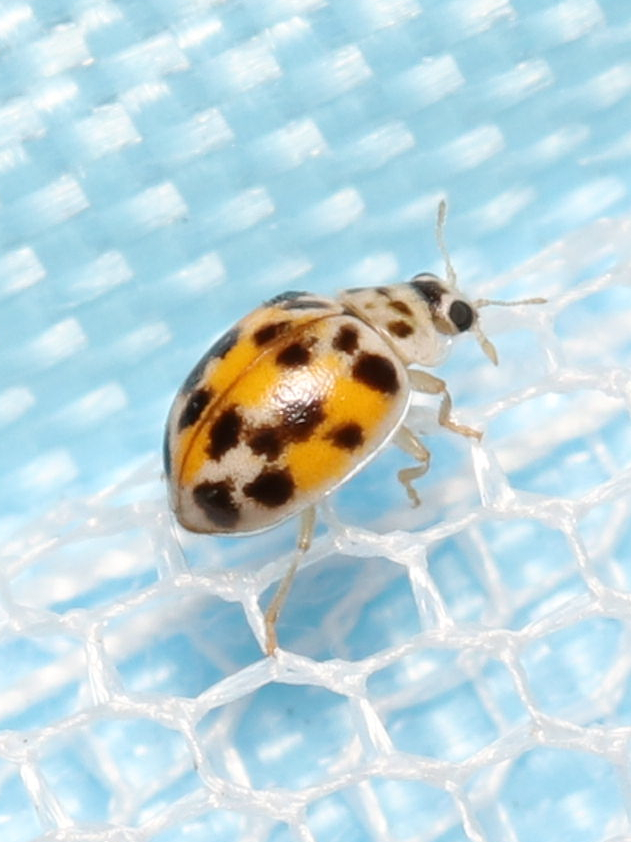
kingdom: Animalia
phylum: Arthropoda
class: Insecta
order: Coleoptera
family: Coccinellidae
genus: Psyllobora
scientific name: Psyllobora vigintimaculata
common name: Ladybird beetle
